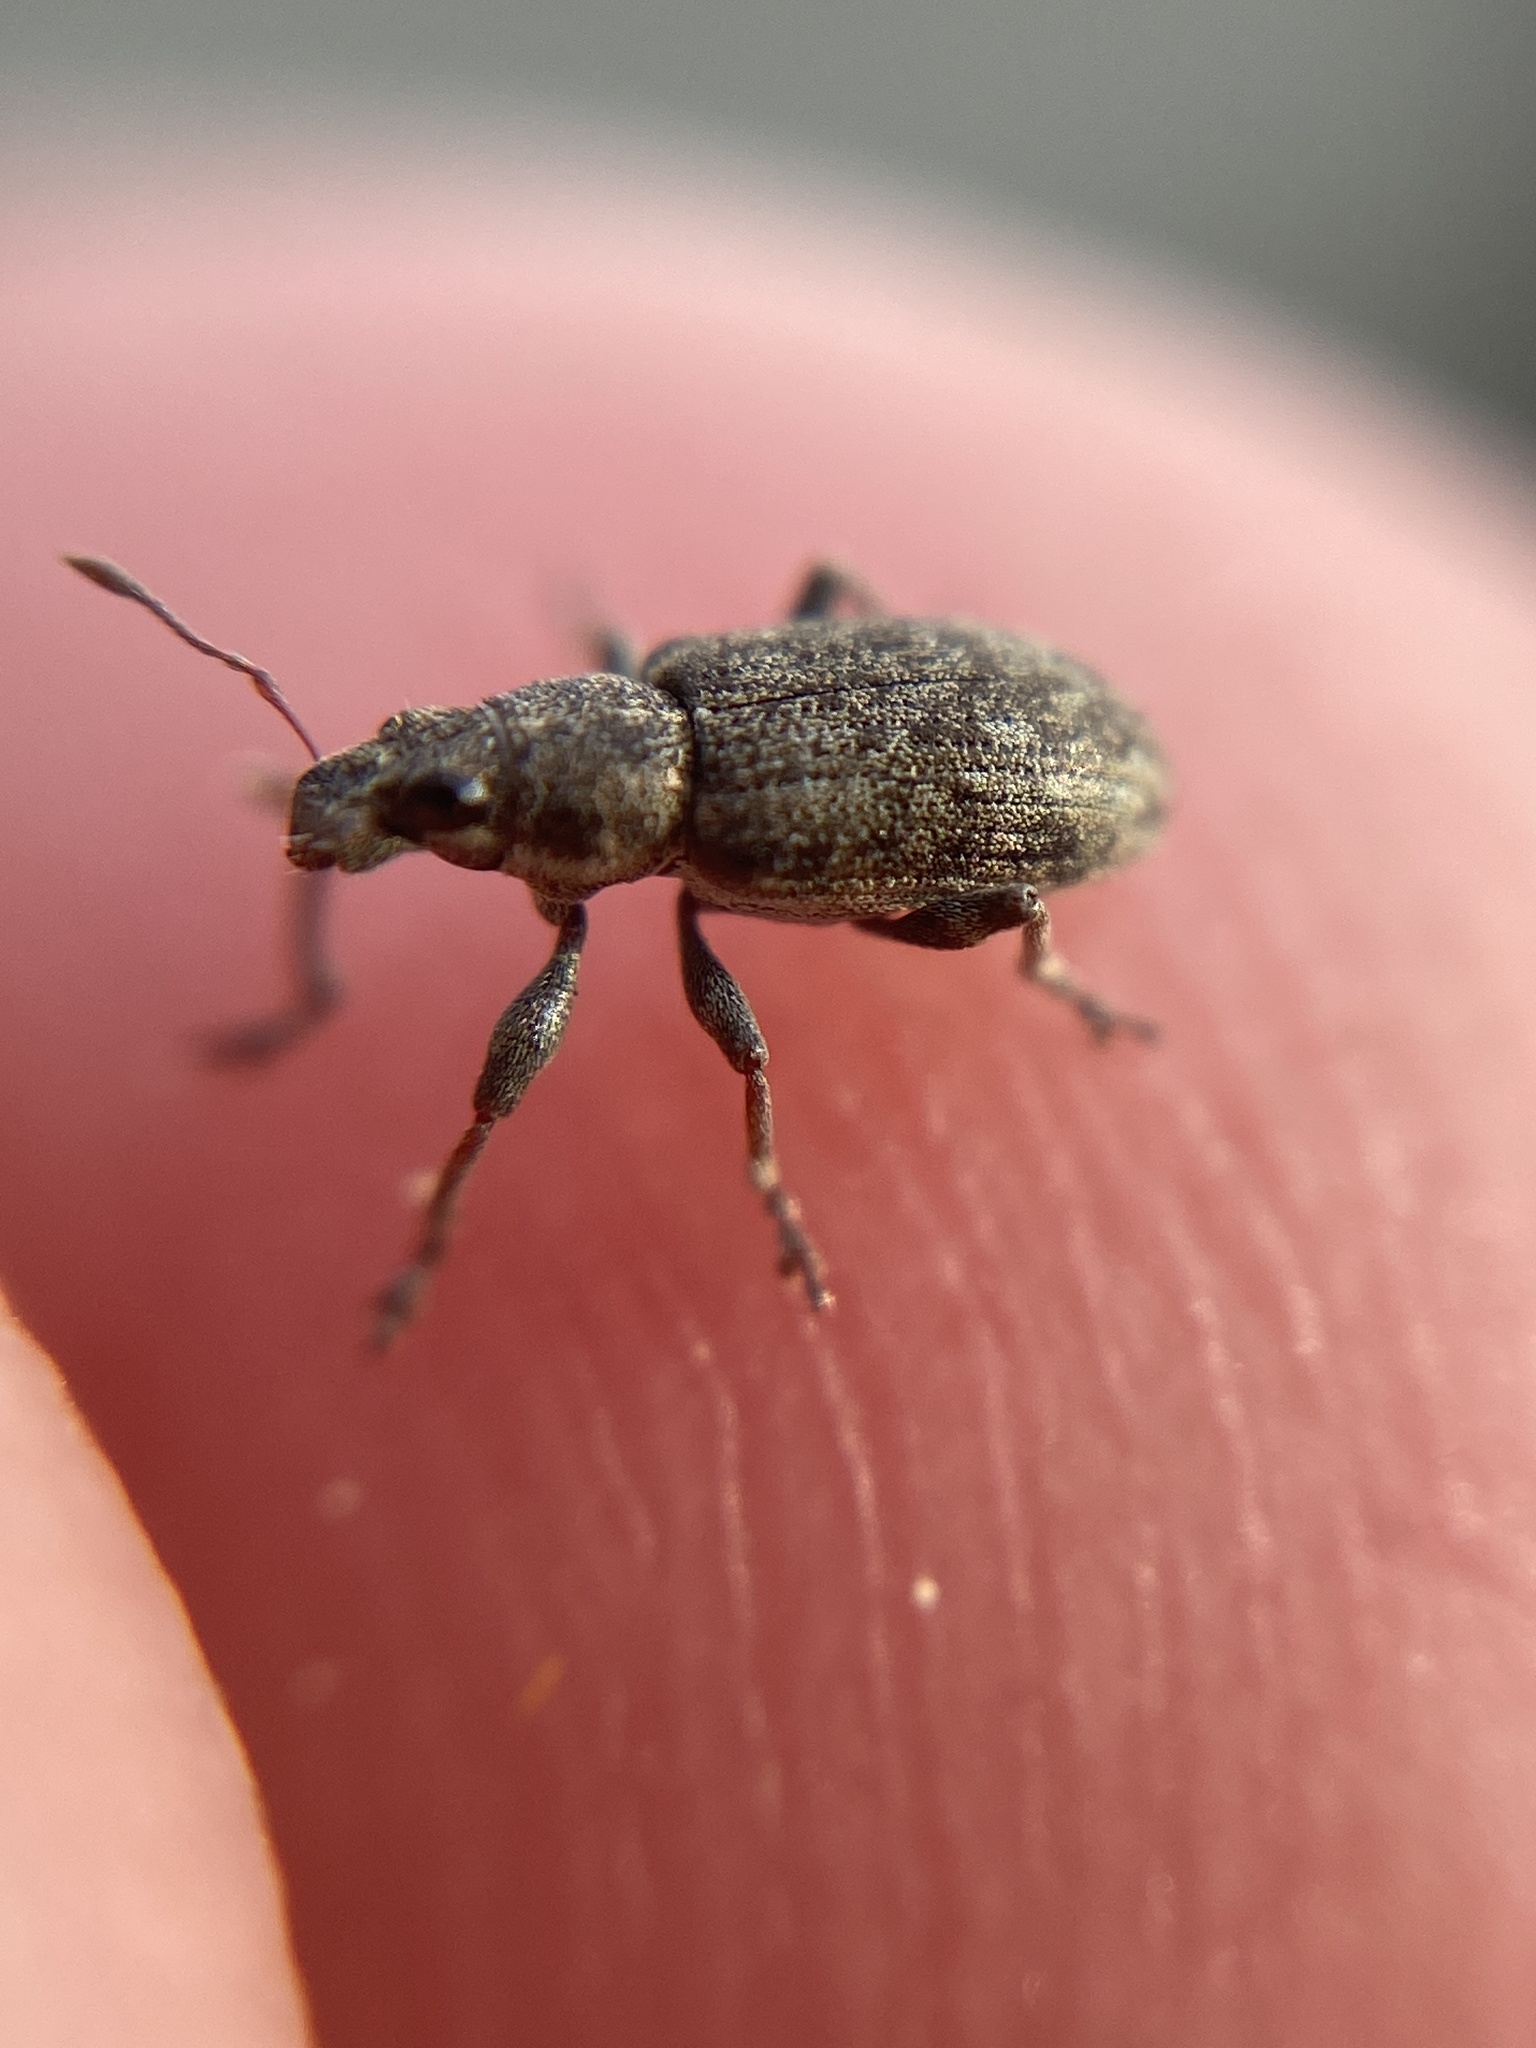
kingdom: Animalia
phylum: Arthropoda
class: Insecta
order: Coleoptera
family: Curculionidae
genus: Sitona
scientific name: Sitona cylindricollis
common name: Weevil
